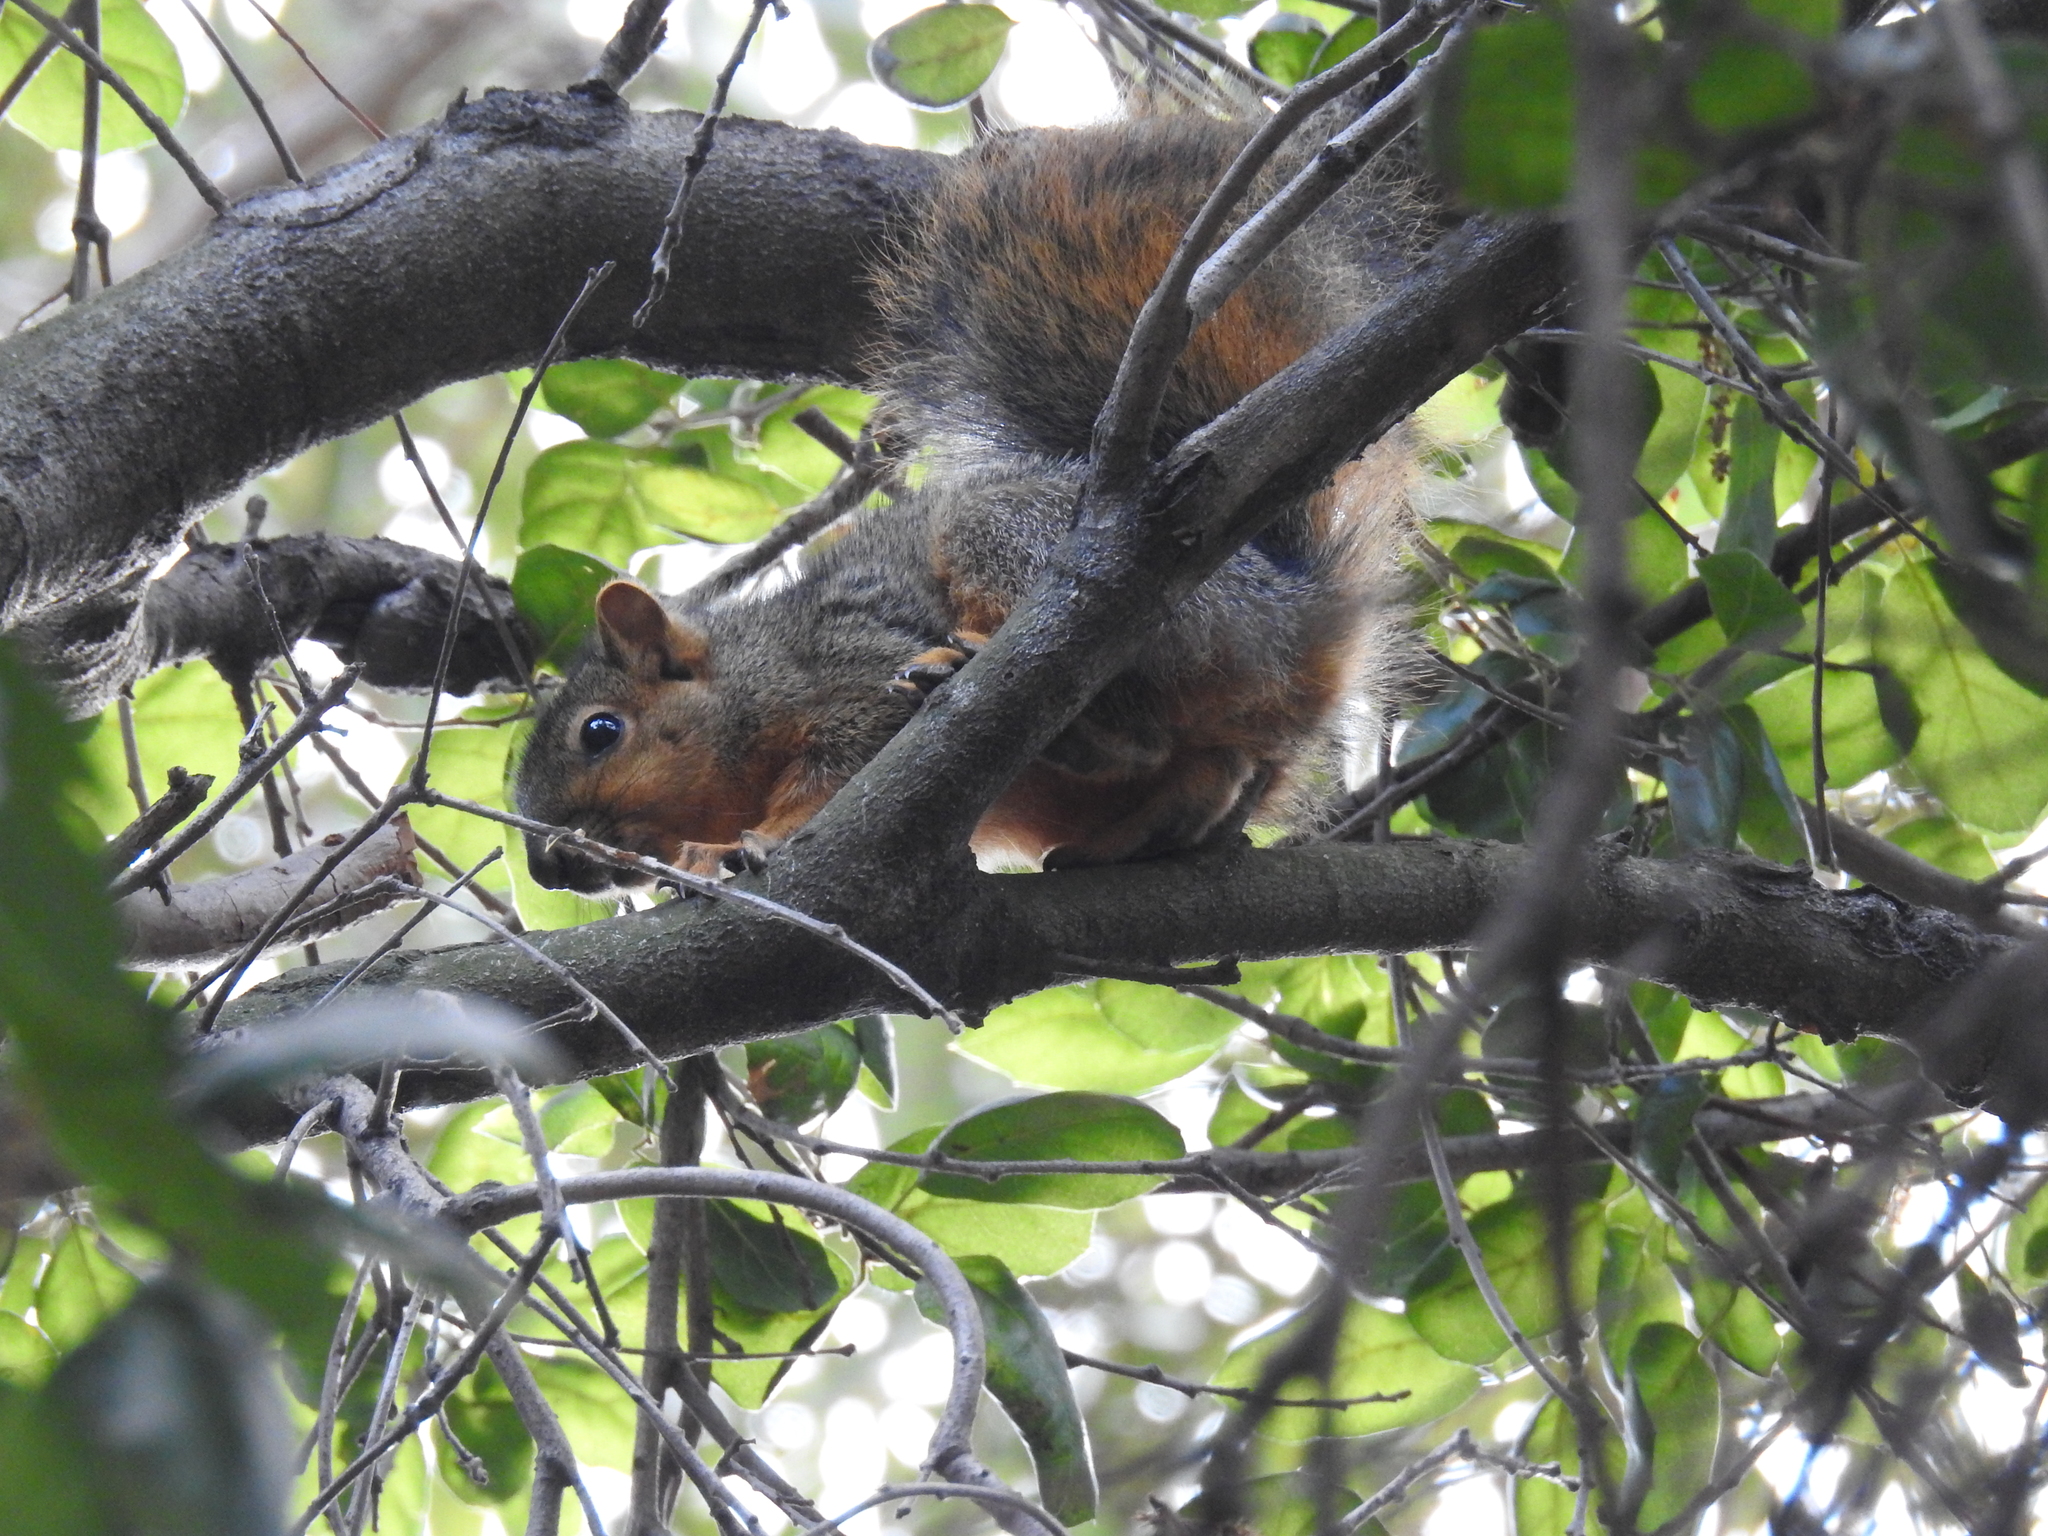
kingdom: Animalia
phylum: Chordata
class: Mammalia
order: Rodentia
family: Sciuridae
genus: Sciurus
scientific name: Sciurus niger
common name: Fox squirrel
